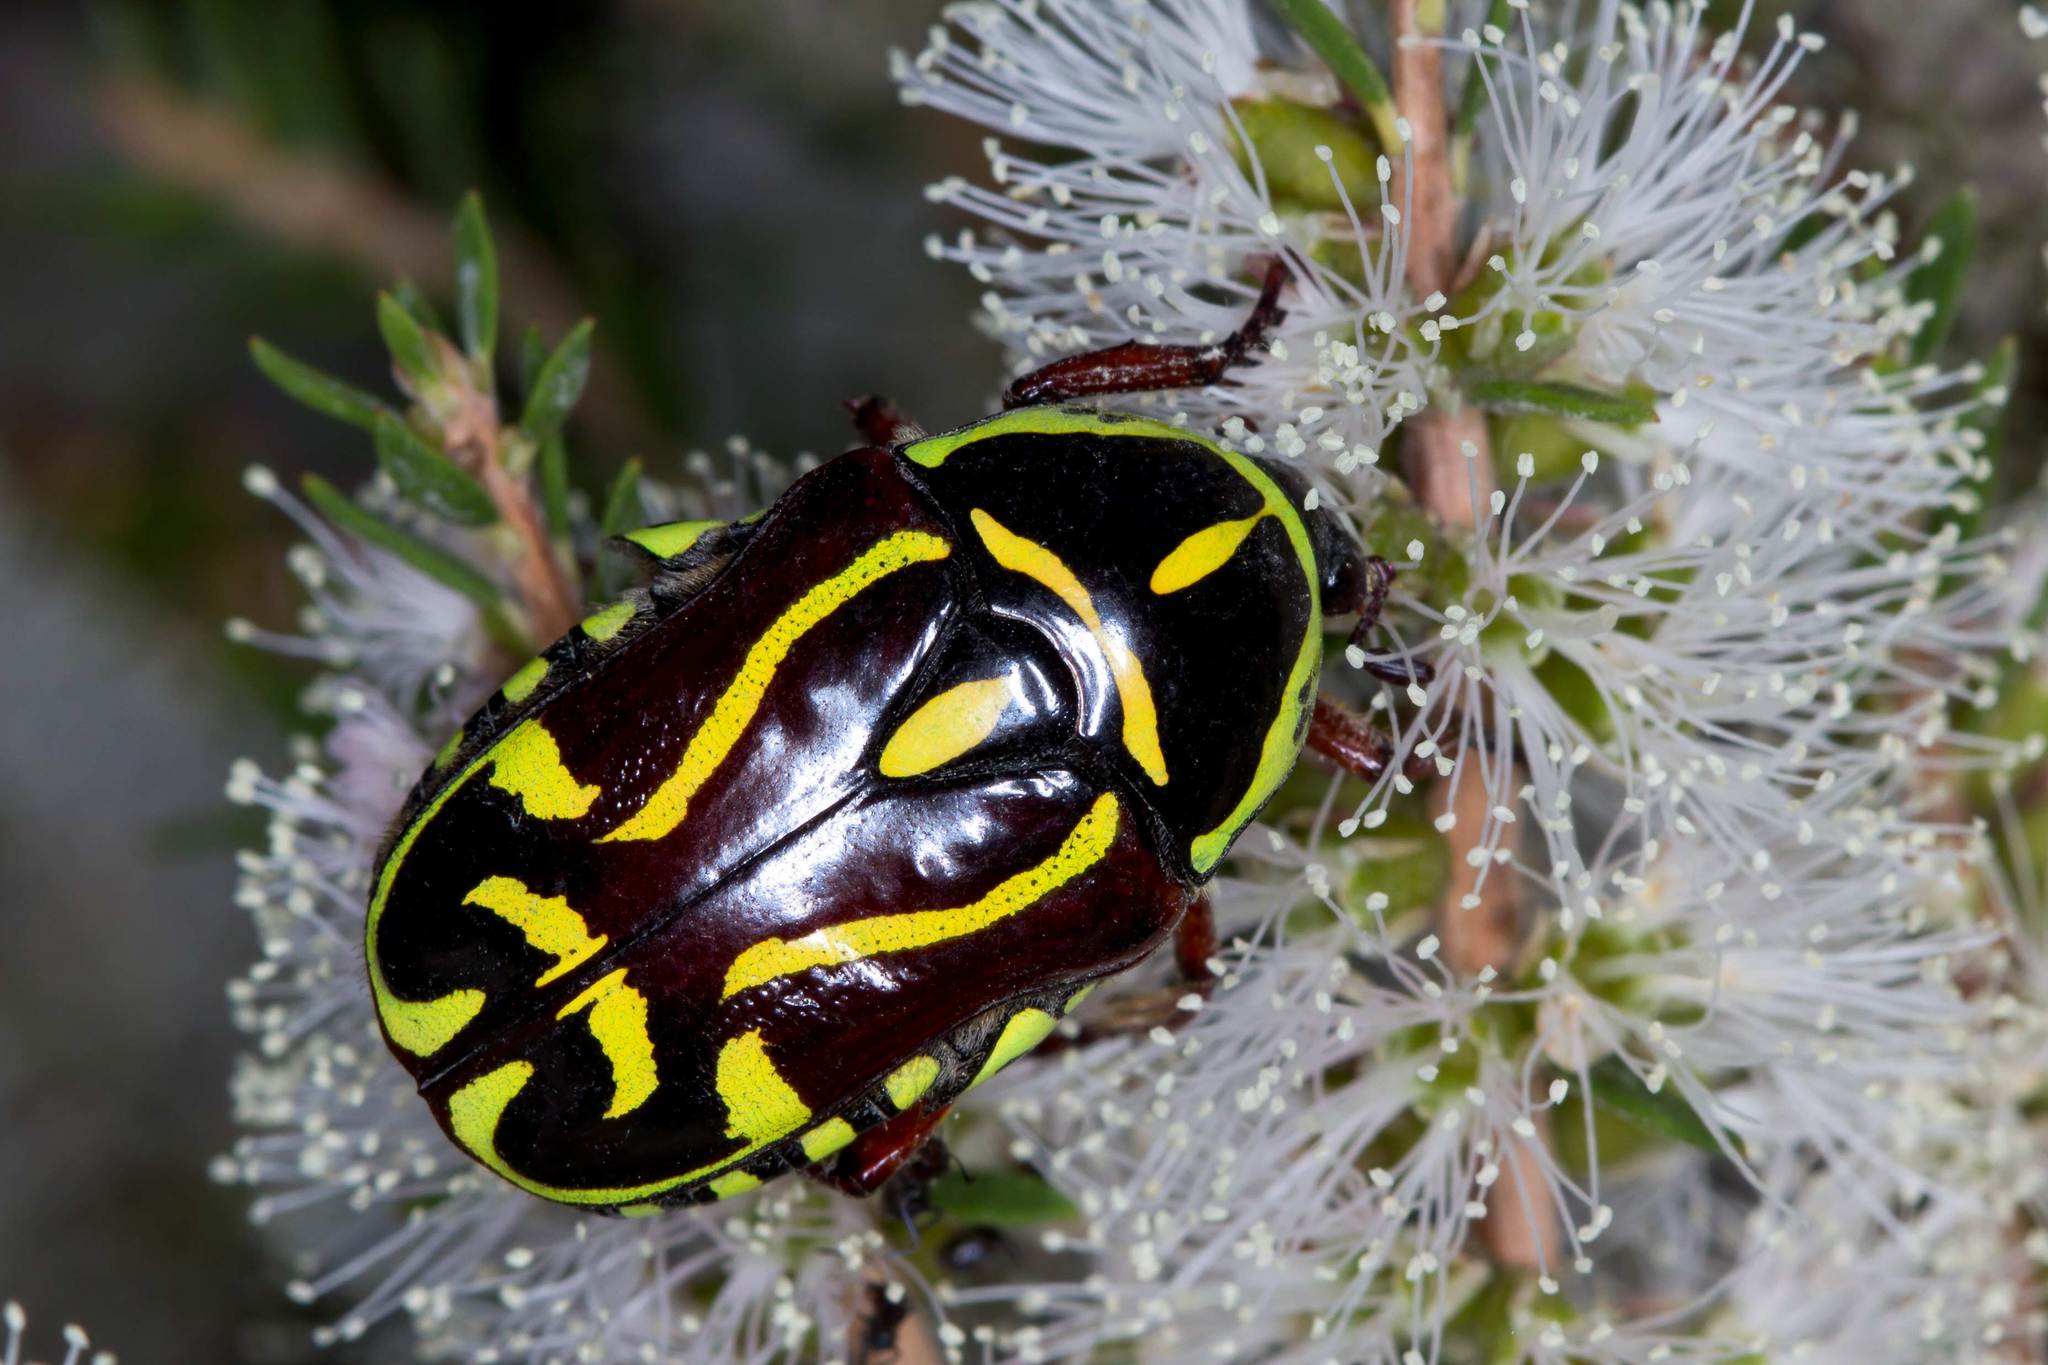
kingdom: Animalia
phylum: Arthropoda
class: Insecta
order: Coleoptera
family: Scarabaeidae
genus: Eupoecila
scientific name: Eupoecila australasiae
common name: Fiddler beetle
